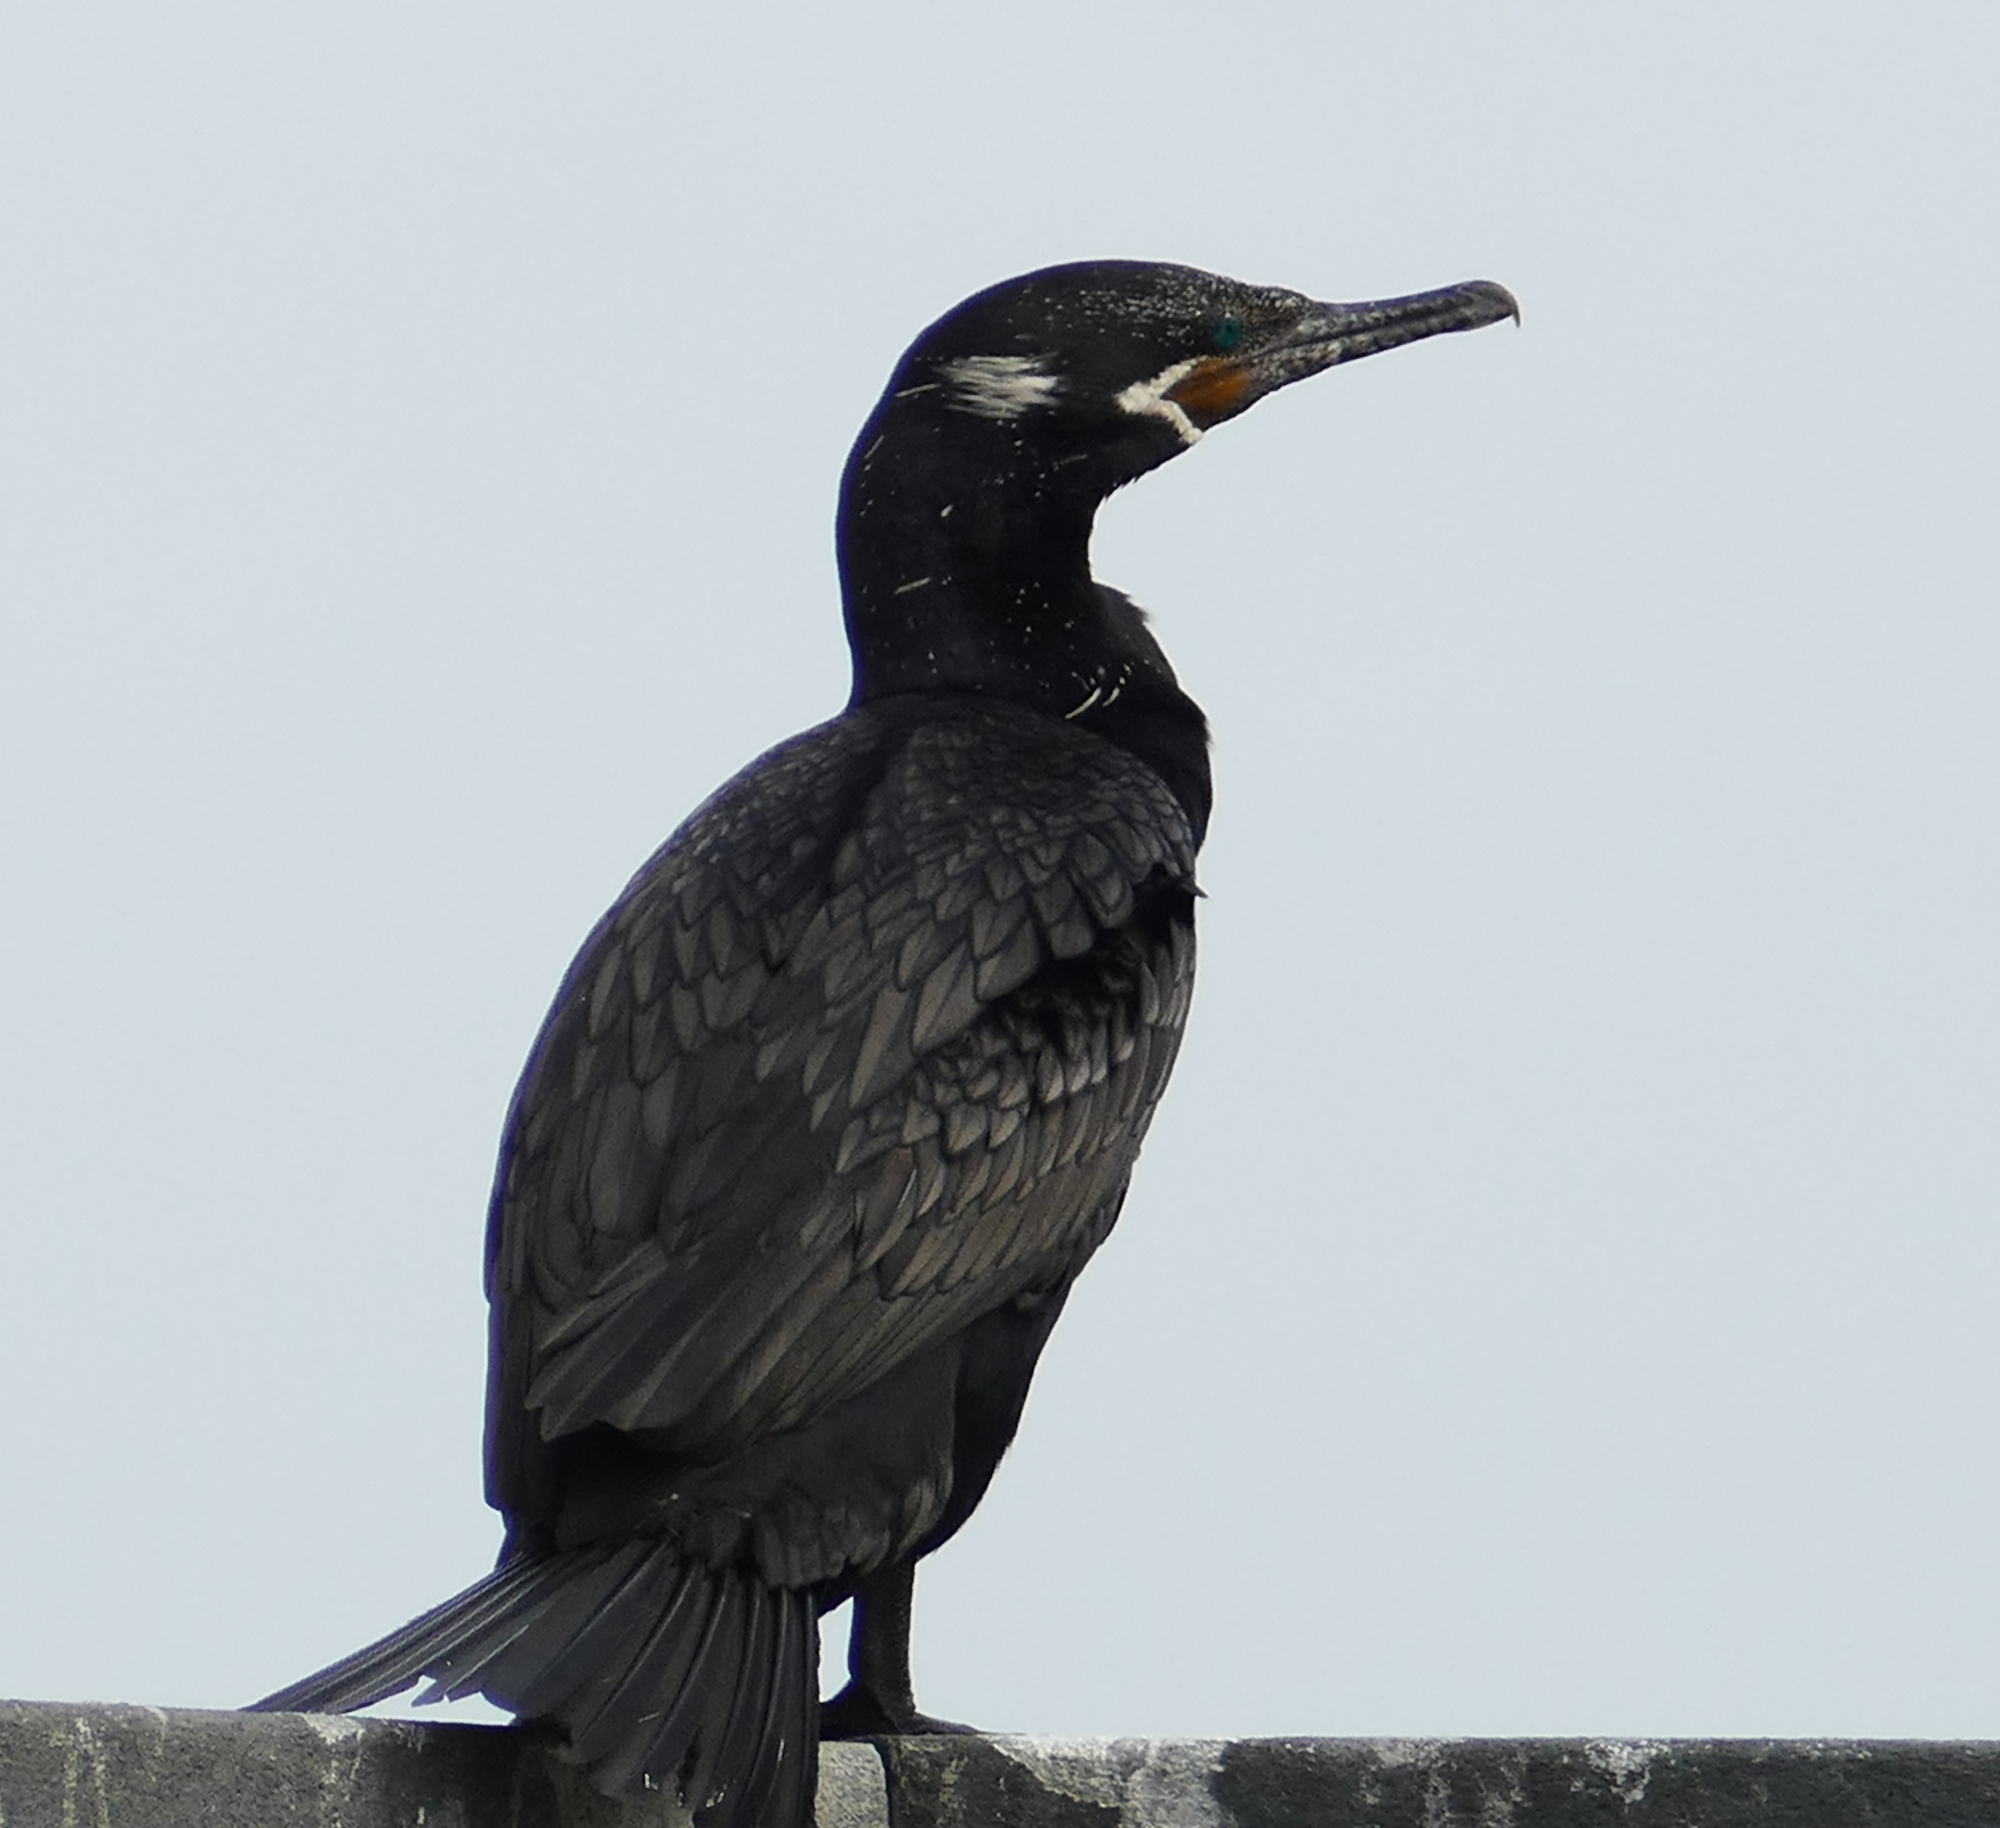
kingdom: Animalia
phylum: Chordata
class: Aves
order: Suliformes
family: Phalacrocoracidae
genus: Phalacrocorax
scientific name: Phalacrocorax brasilianus
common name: Neotropic cormorant
